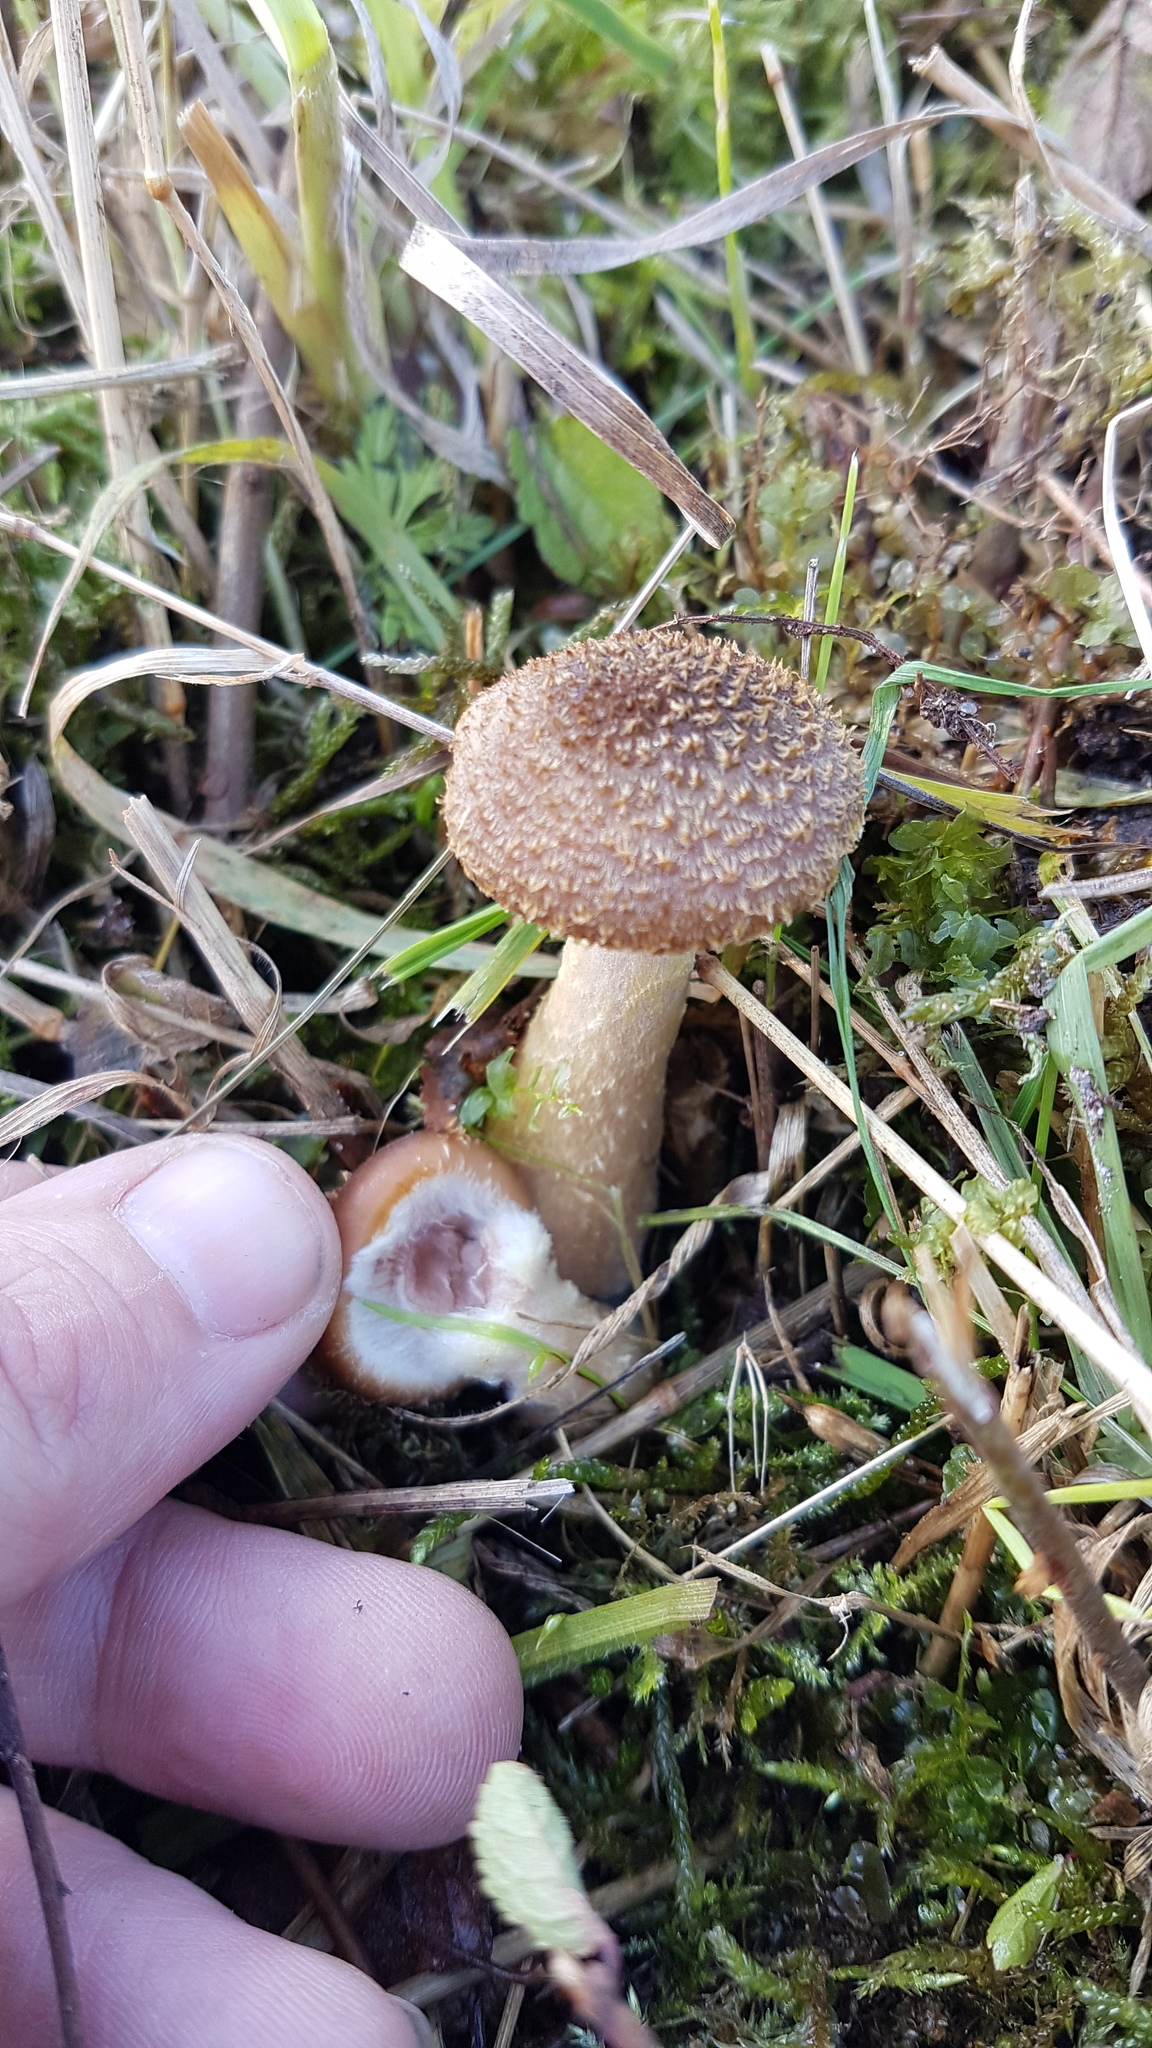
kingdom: Fungi
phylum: Basidiomycota
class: Agaricomycetes
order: Agaricales
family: Physalacriaceae
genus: Armillaria
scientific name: Armillaria gallica
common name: Bulbous honey fungus
